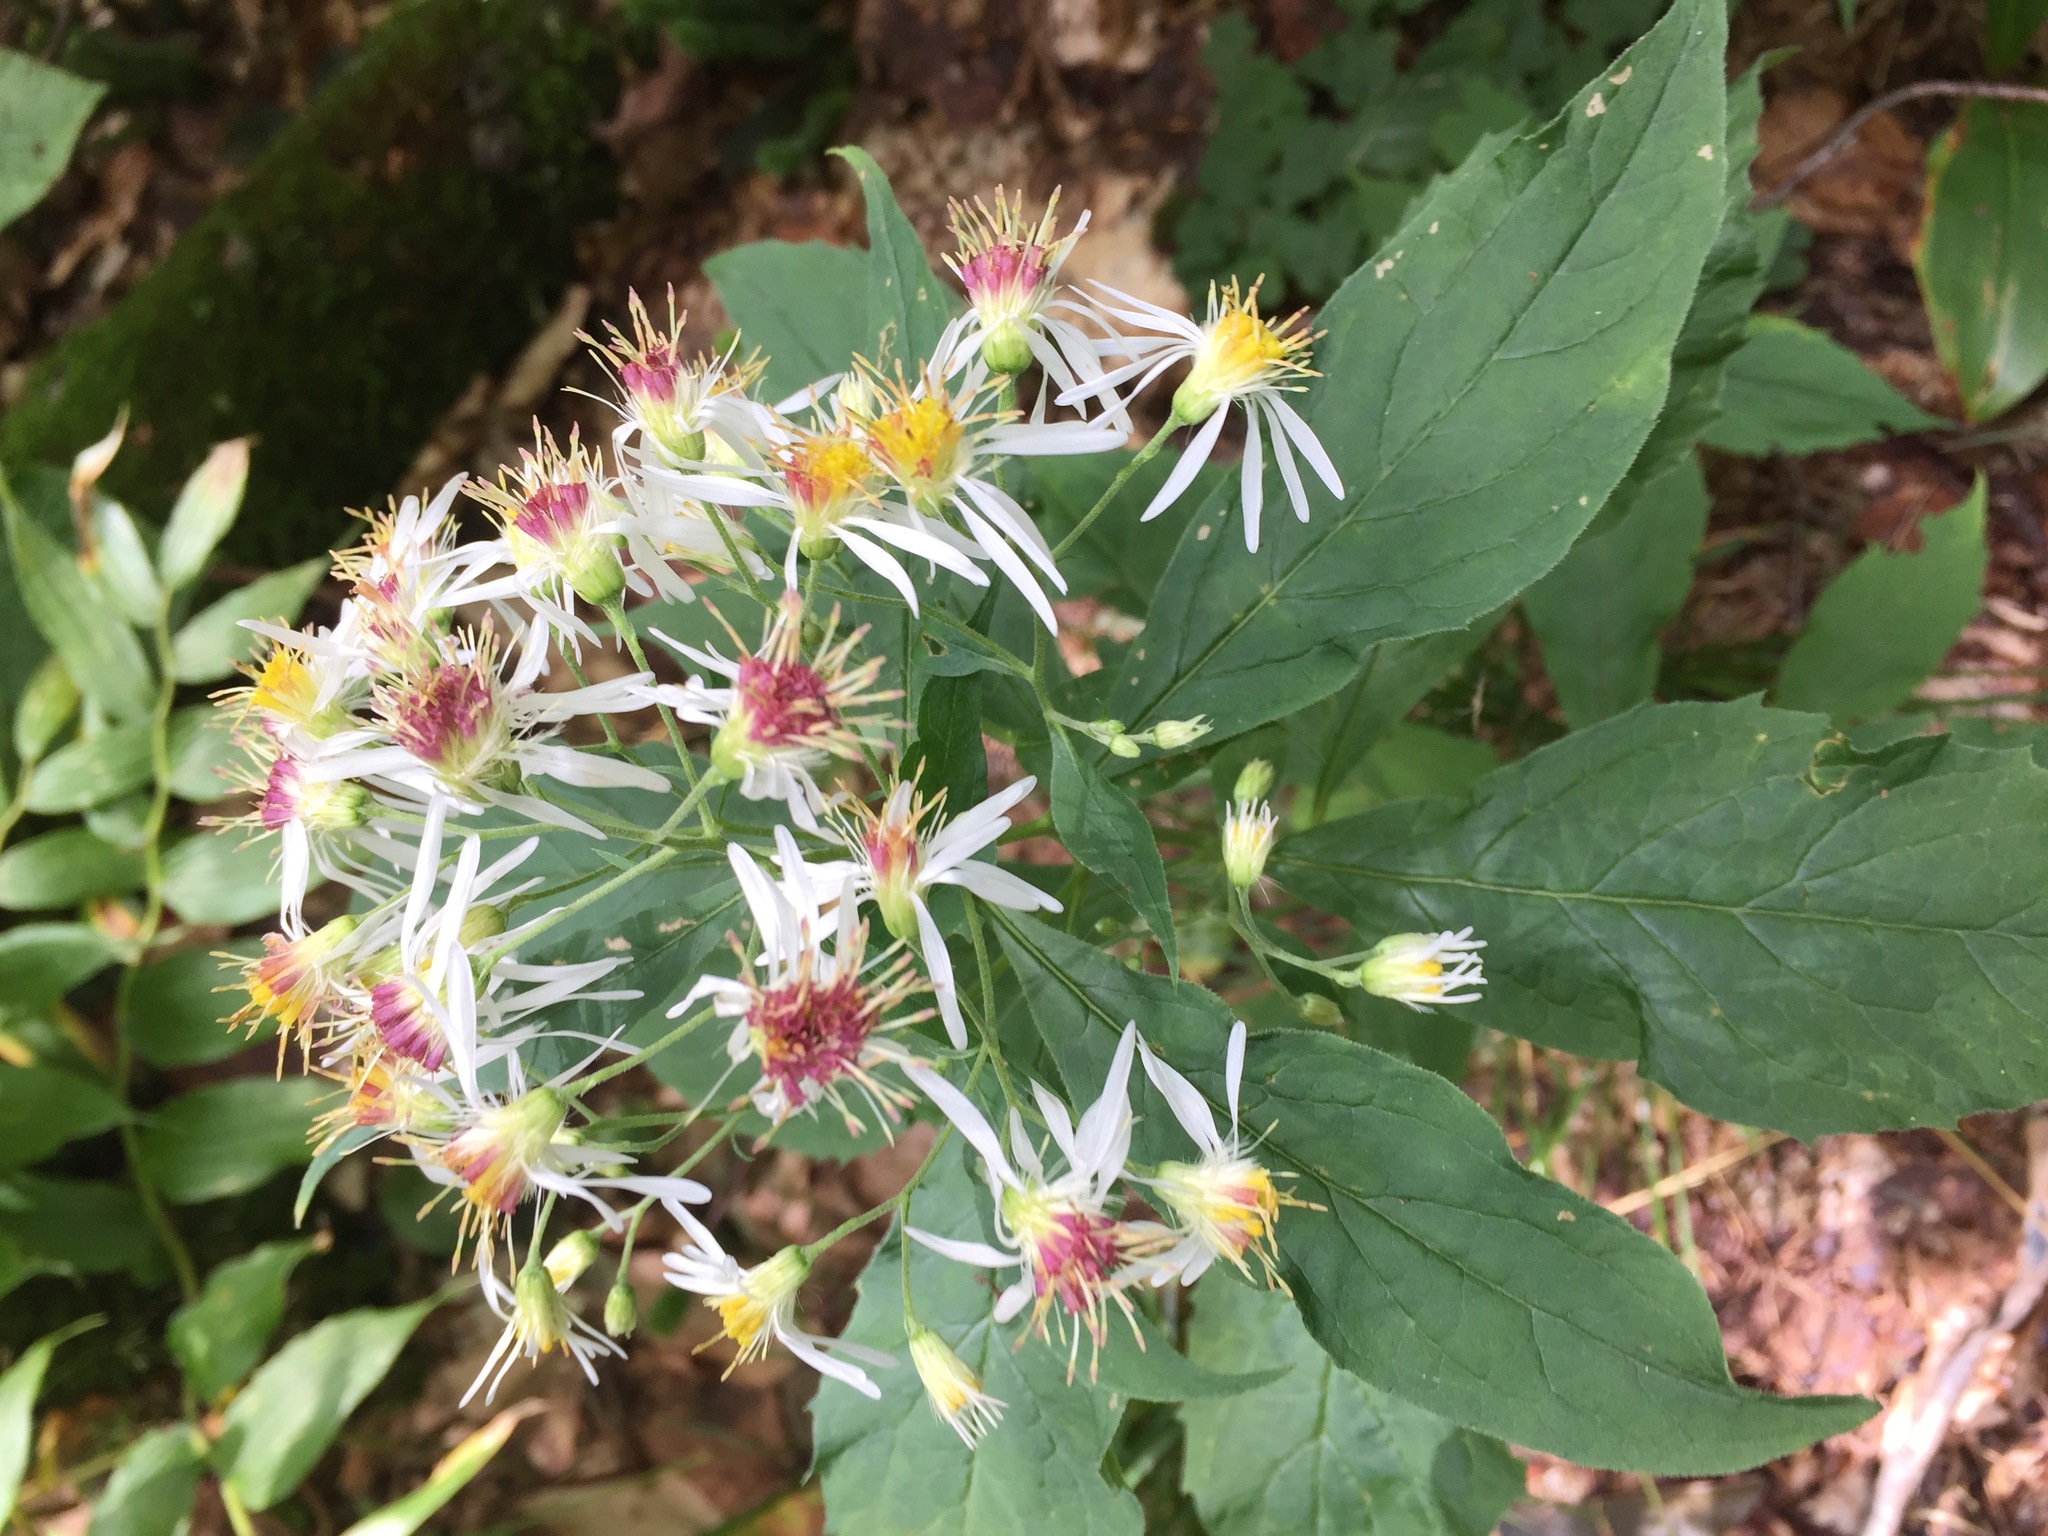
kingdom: Plantae
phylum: Tracheophyta
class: Magnoliopsida
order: Asterales
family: Asteraceae
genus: Oclemena
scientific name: Oclemena acuminata
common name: Mountain aster
